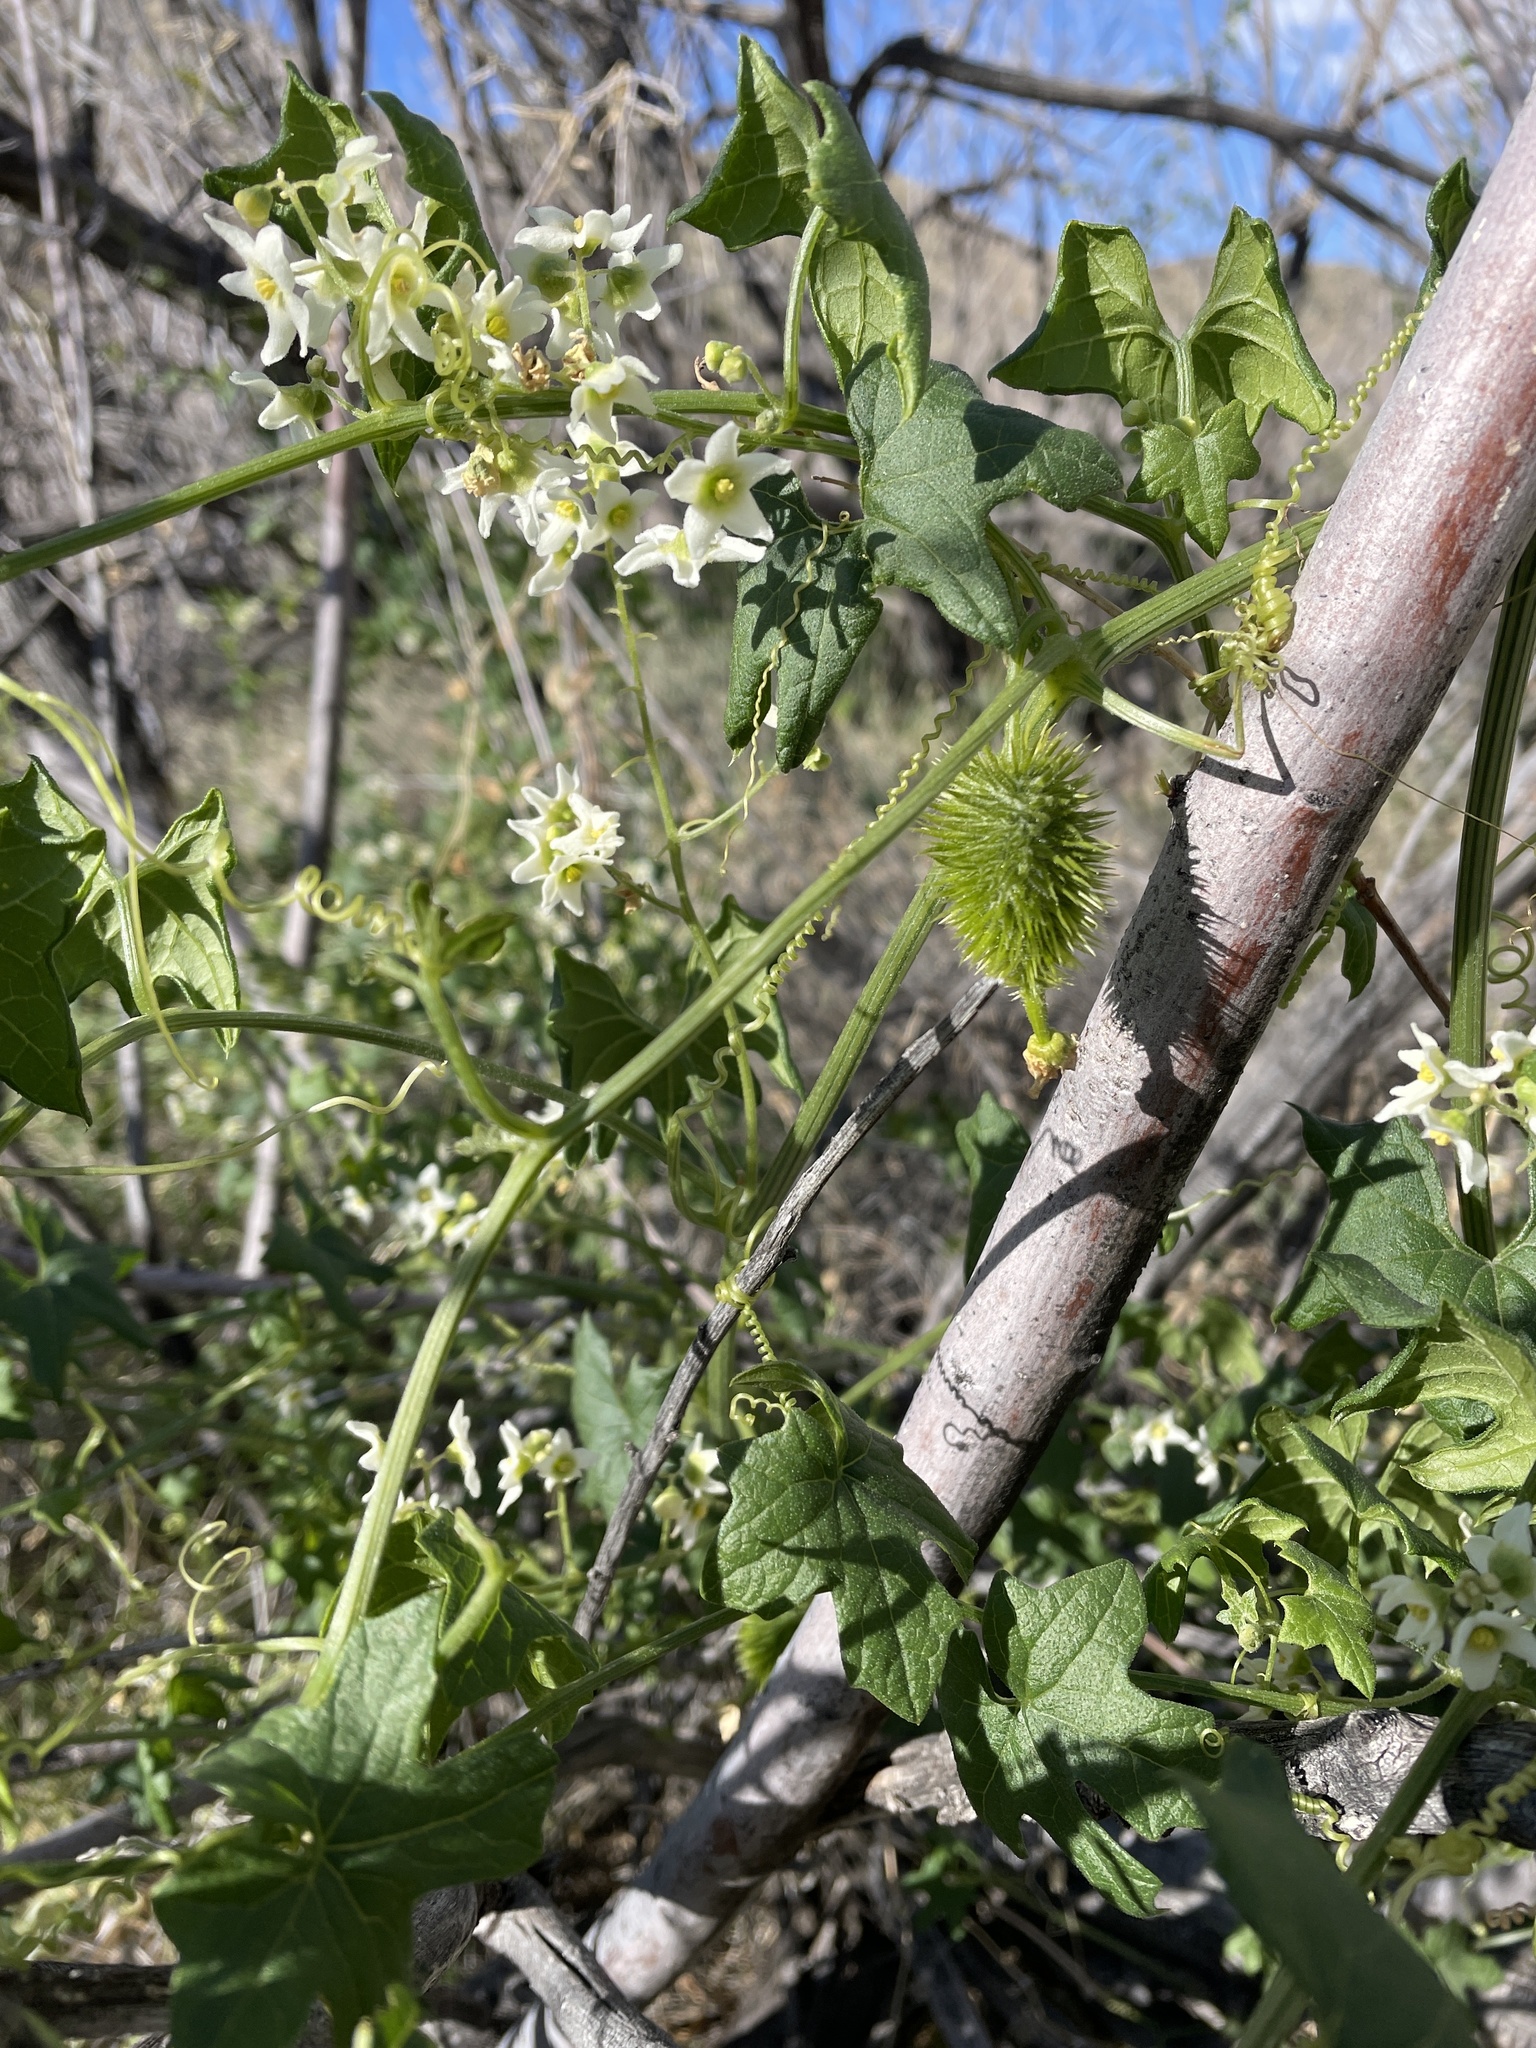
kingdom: Plantae
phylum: Tracheophyta
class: Magnoliopsida
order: Cucurbitales
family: Cucurbitaceae
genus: Marah
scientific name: Marah macrocarpa
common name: Cucamonga manroot
